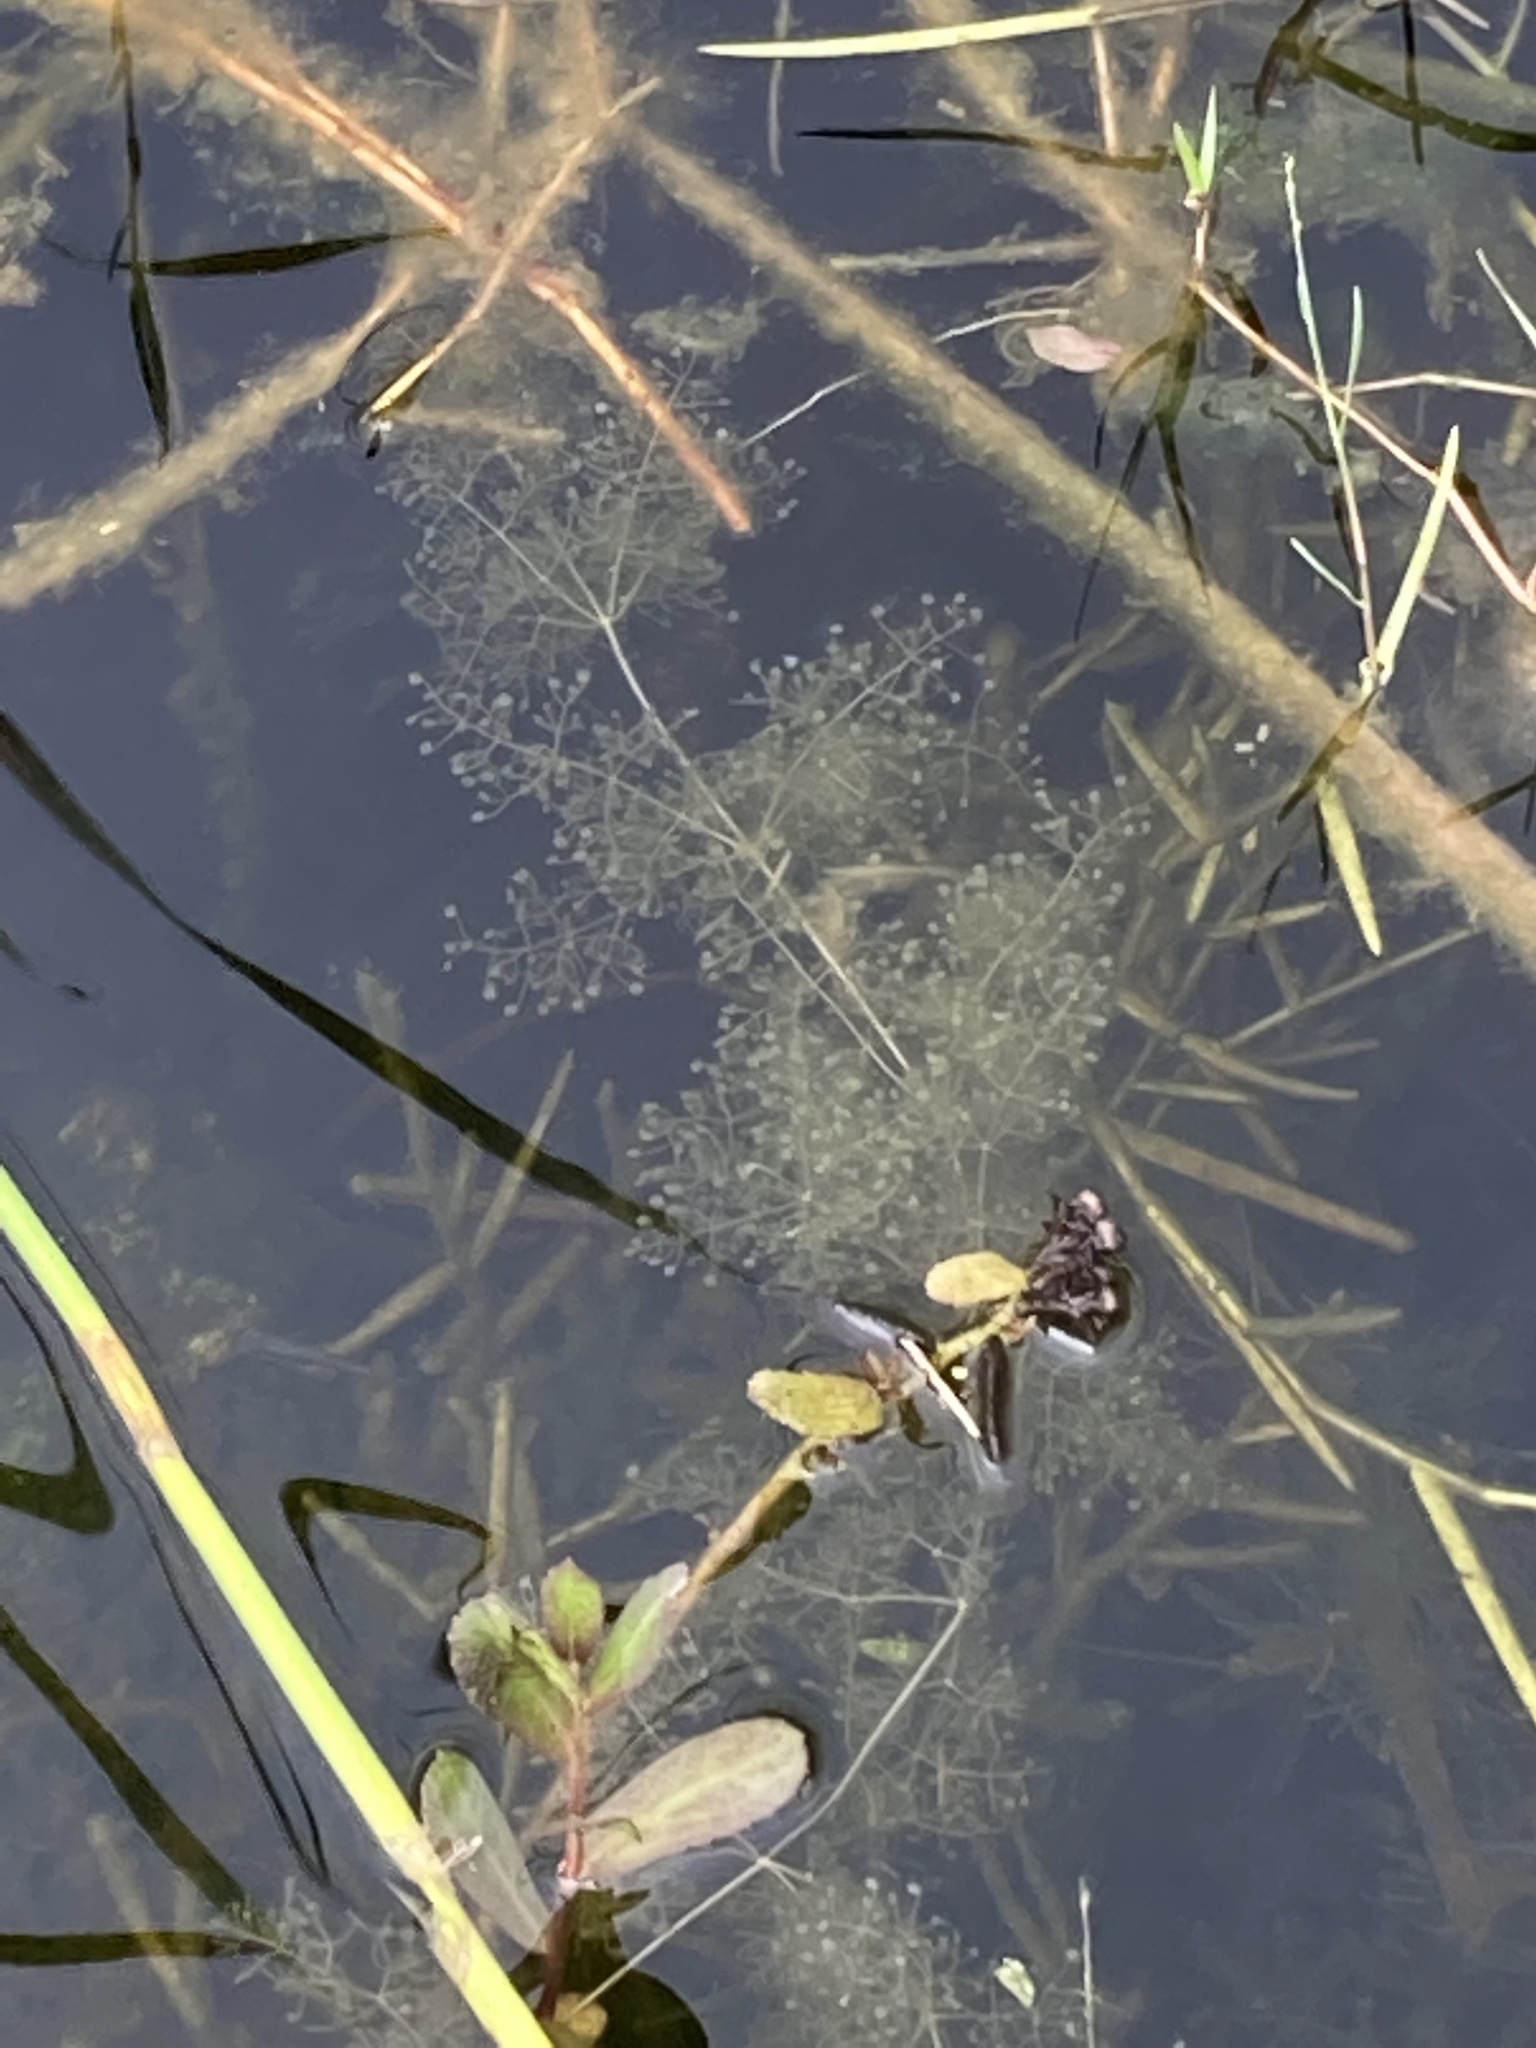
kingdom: Plantae
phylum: Tracheophyta
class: Magnoliopsida
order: Lamiales
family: Lentibulariaceae
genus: Utricularia
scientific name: Utricularia purpurea
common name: Eastern purple bladderwort
